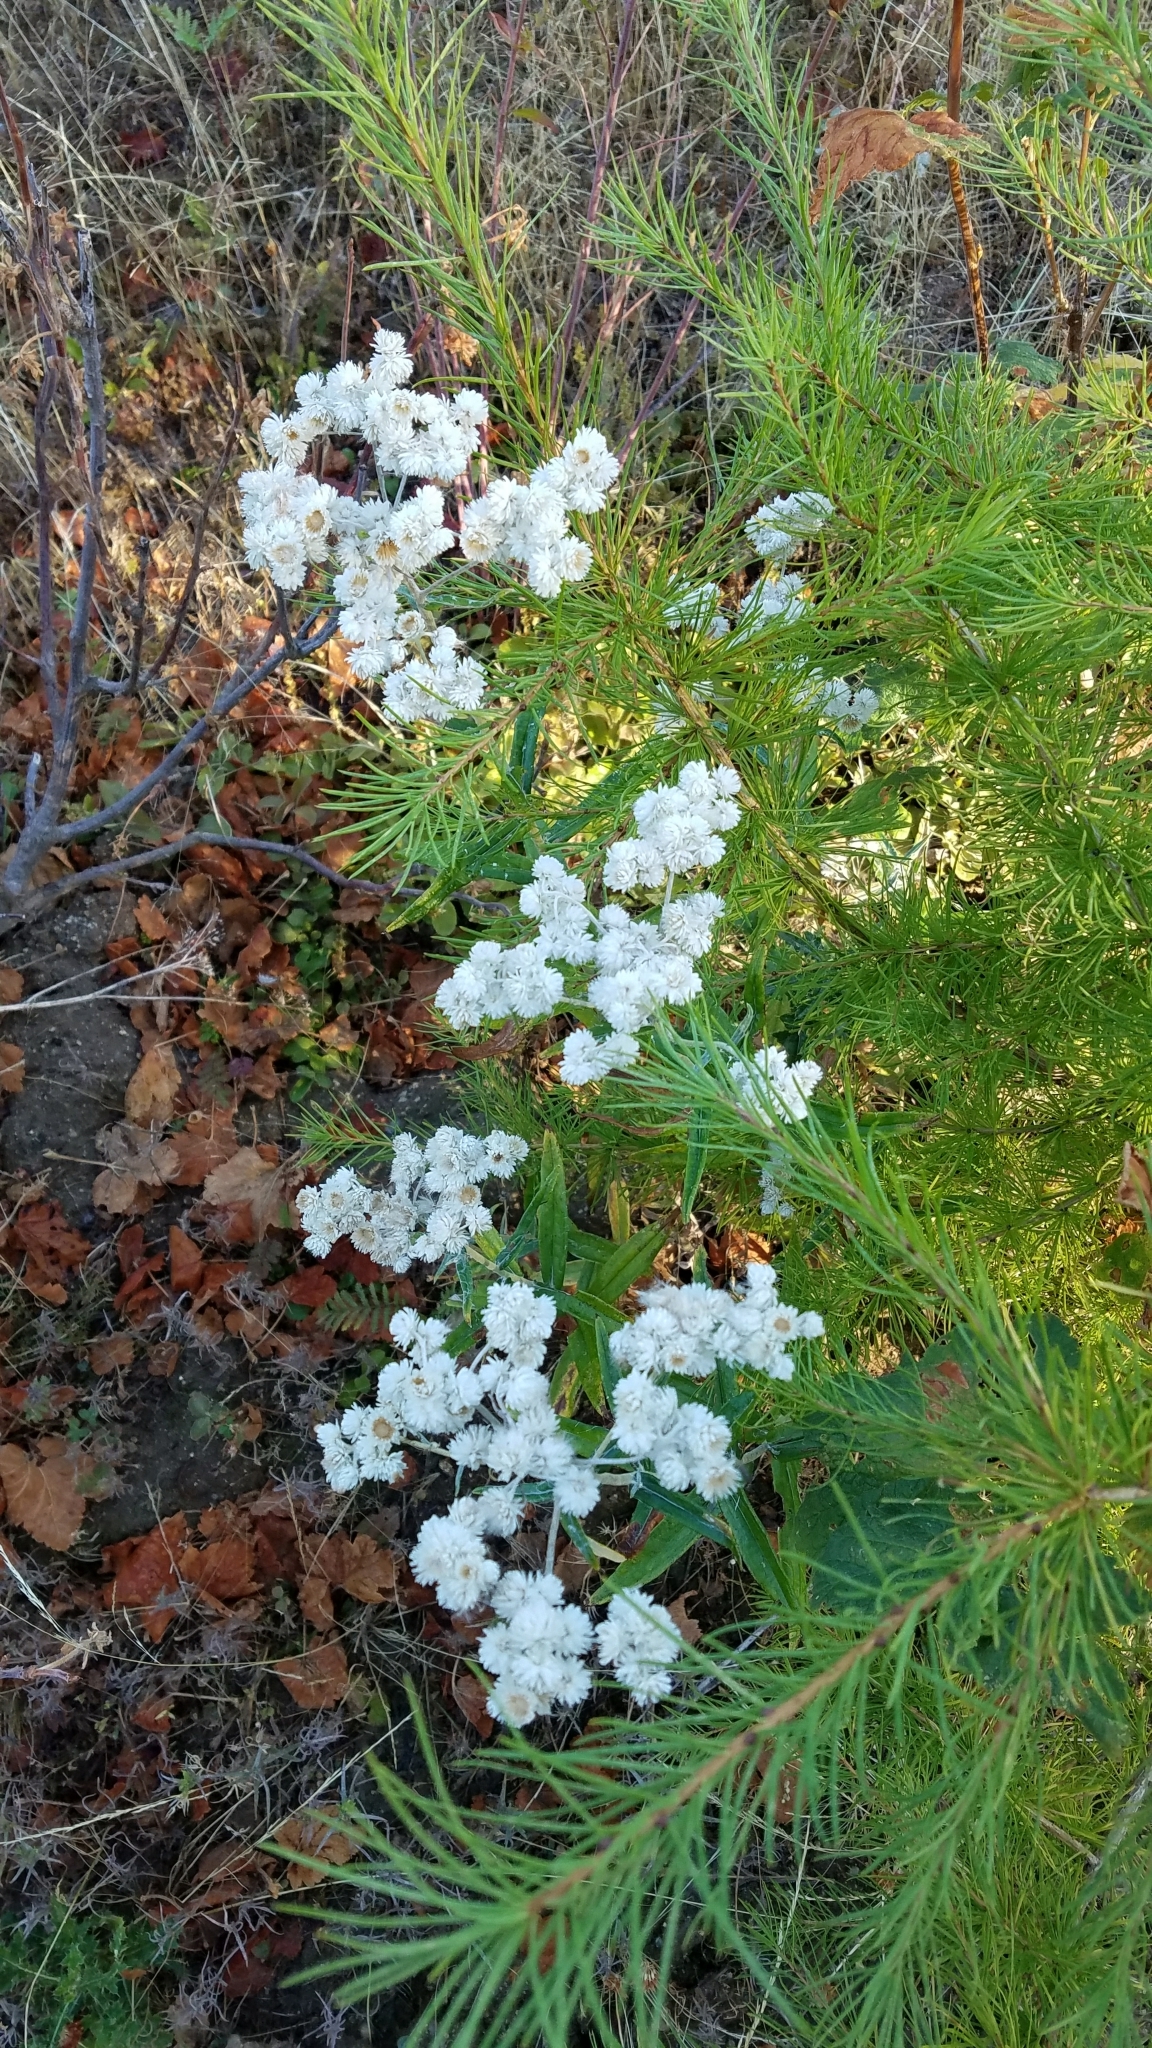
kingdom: Plantae
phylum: Tracheophyta
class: Magnoliopsida
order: Asterales
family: Asteraceae
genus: Anaphalis
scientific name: Anaphalis margaritacea
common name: Pearly everlasting
